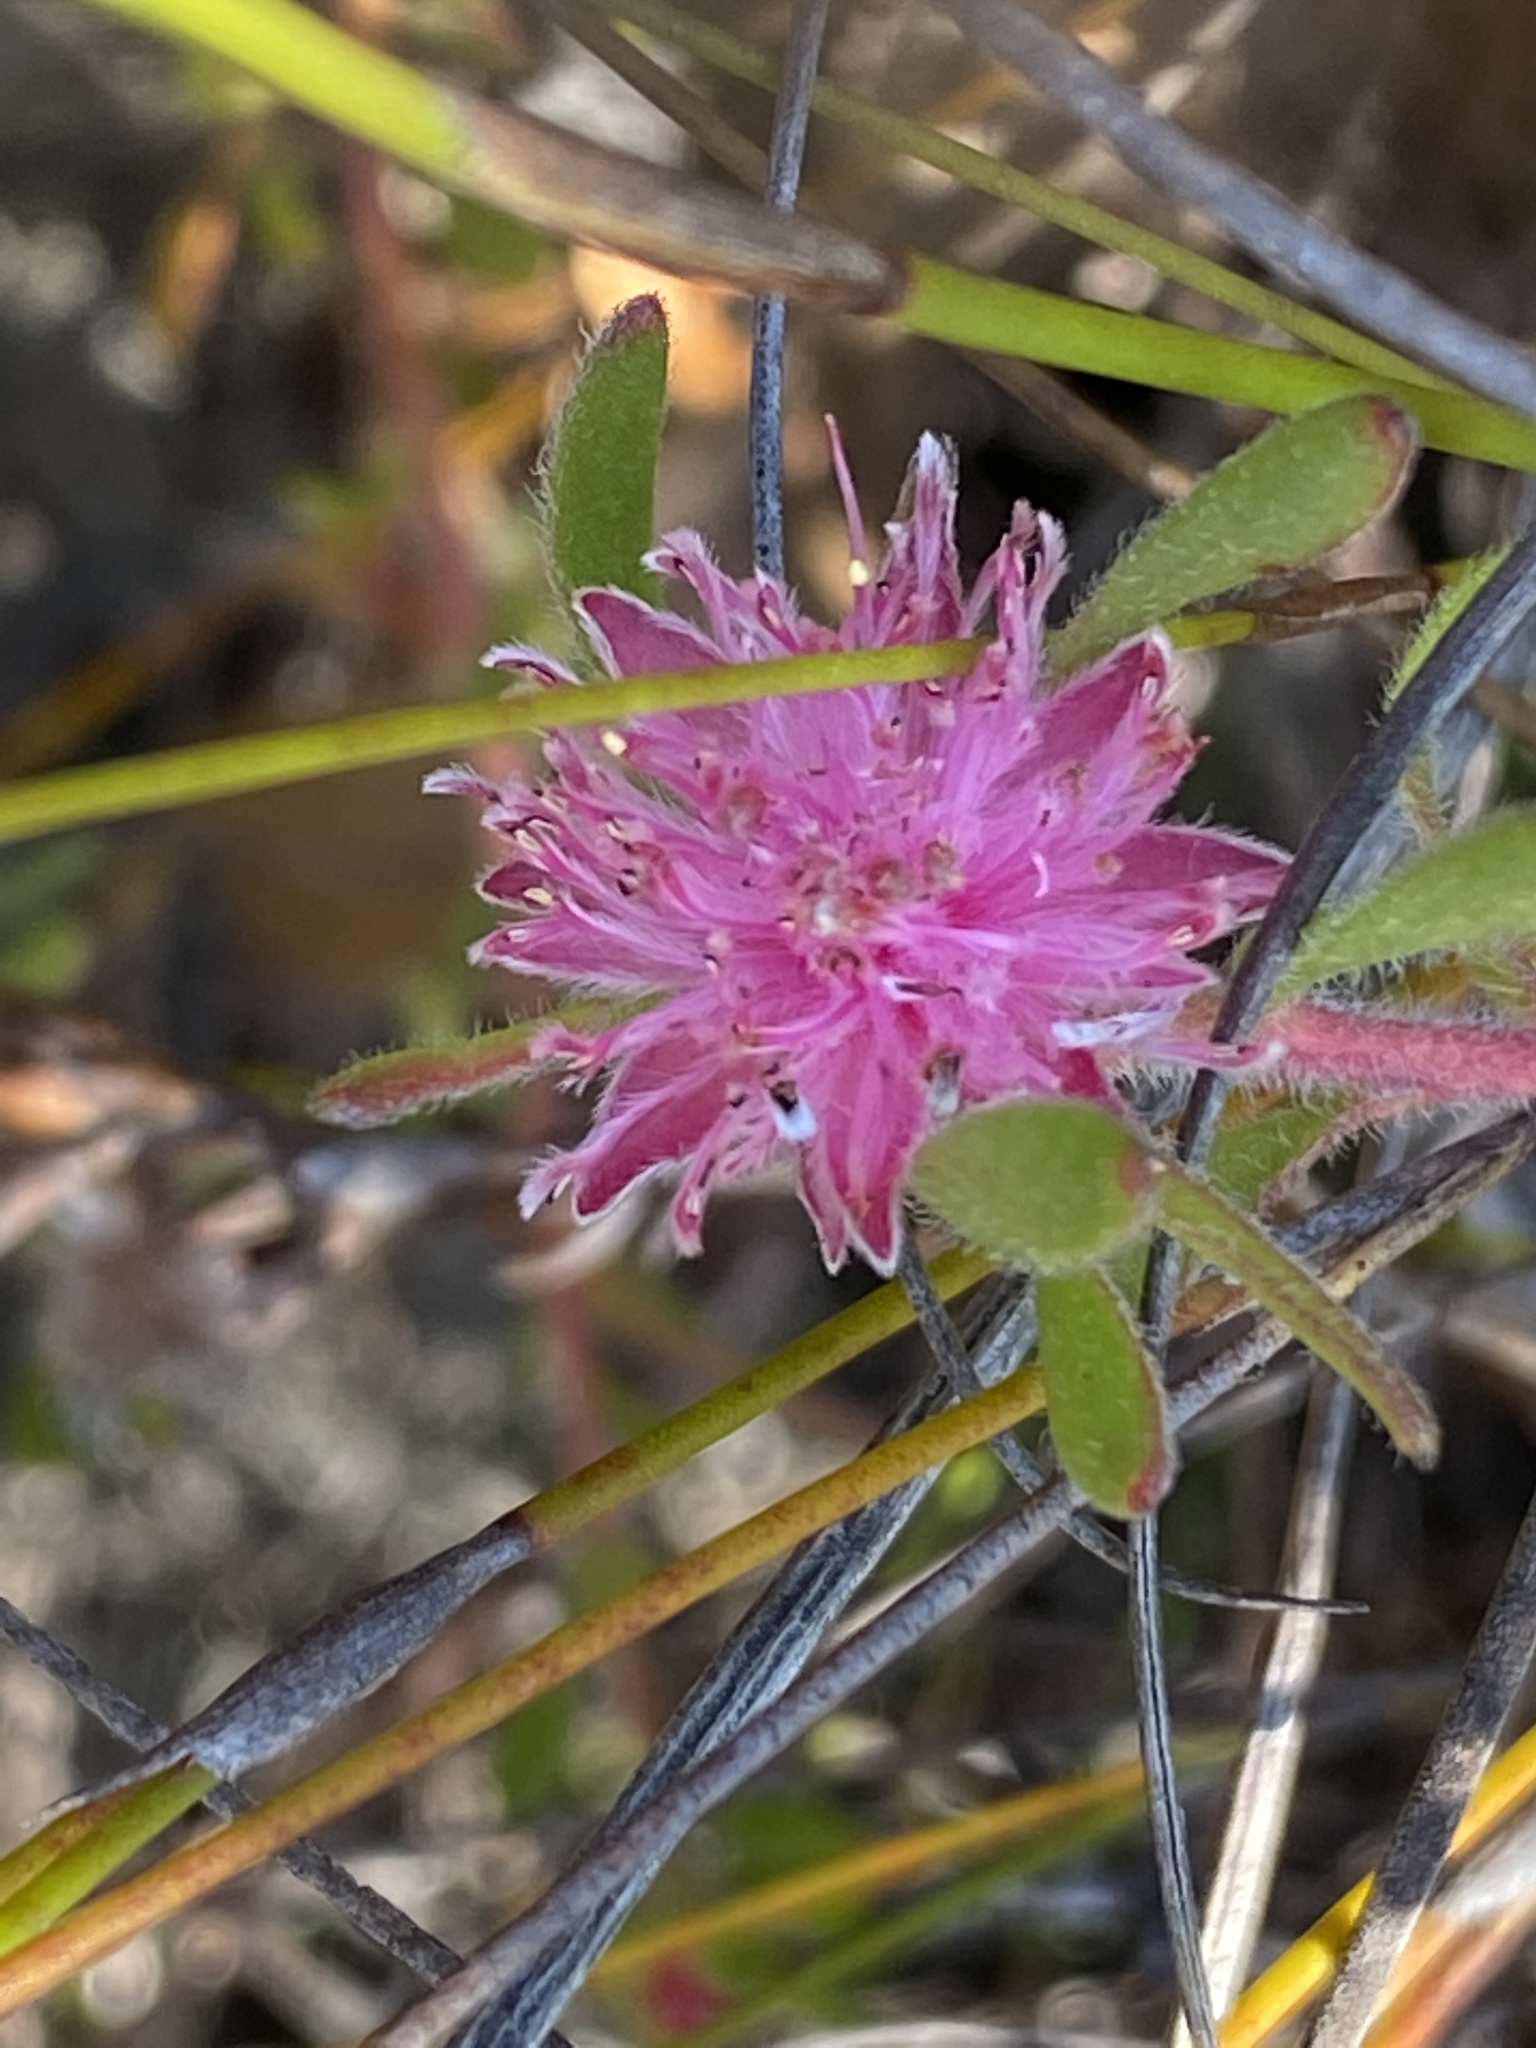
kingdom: Plantae
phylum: Tracheophyta
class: Magnoliopsida
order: Proteales
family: Proteaceae
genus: Diastella
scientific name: Diastella divaricata
